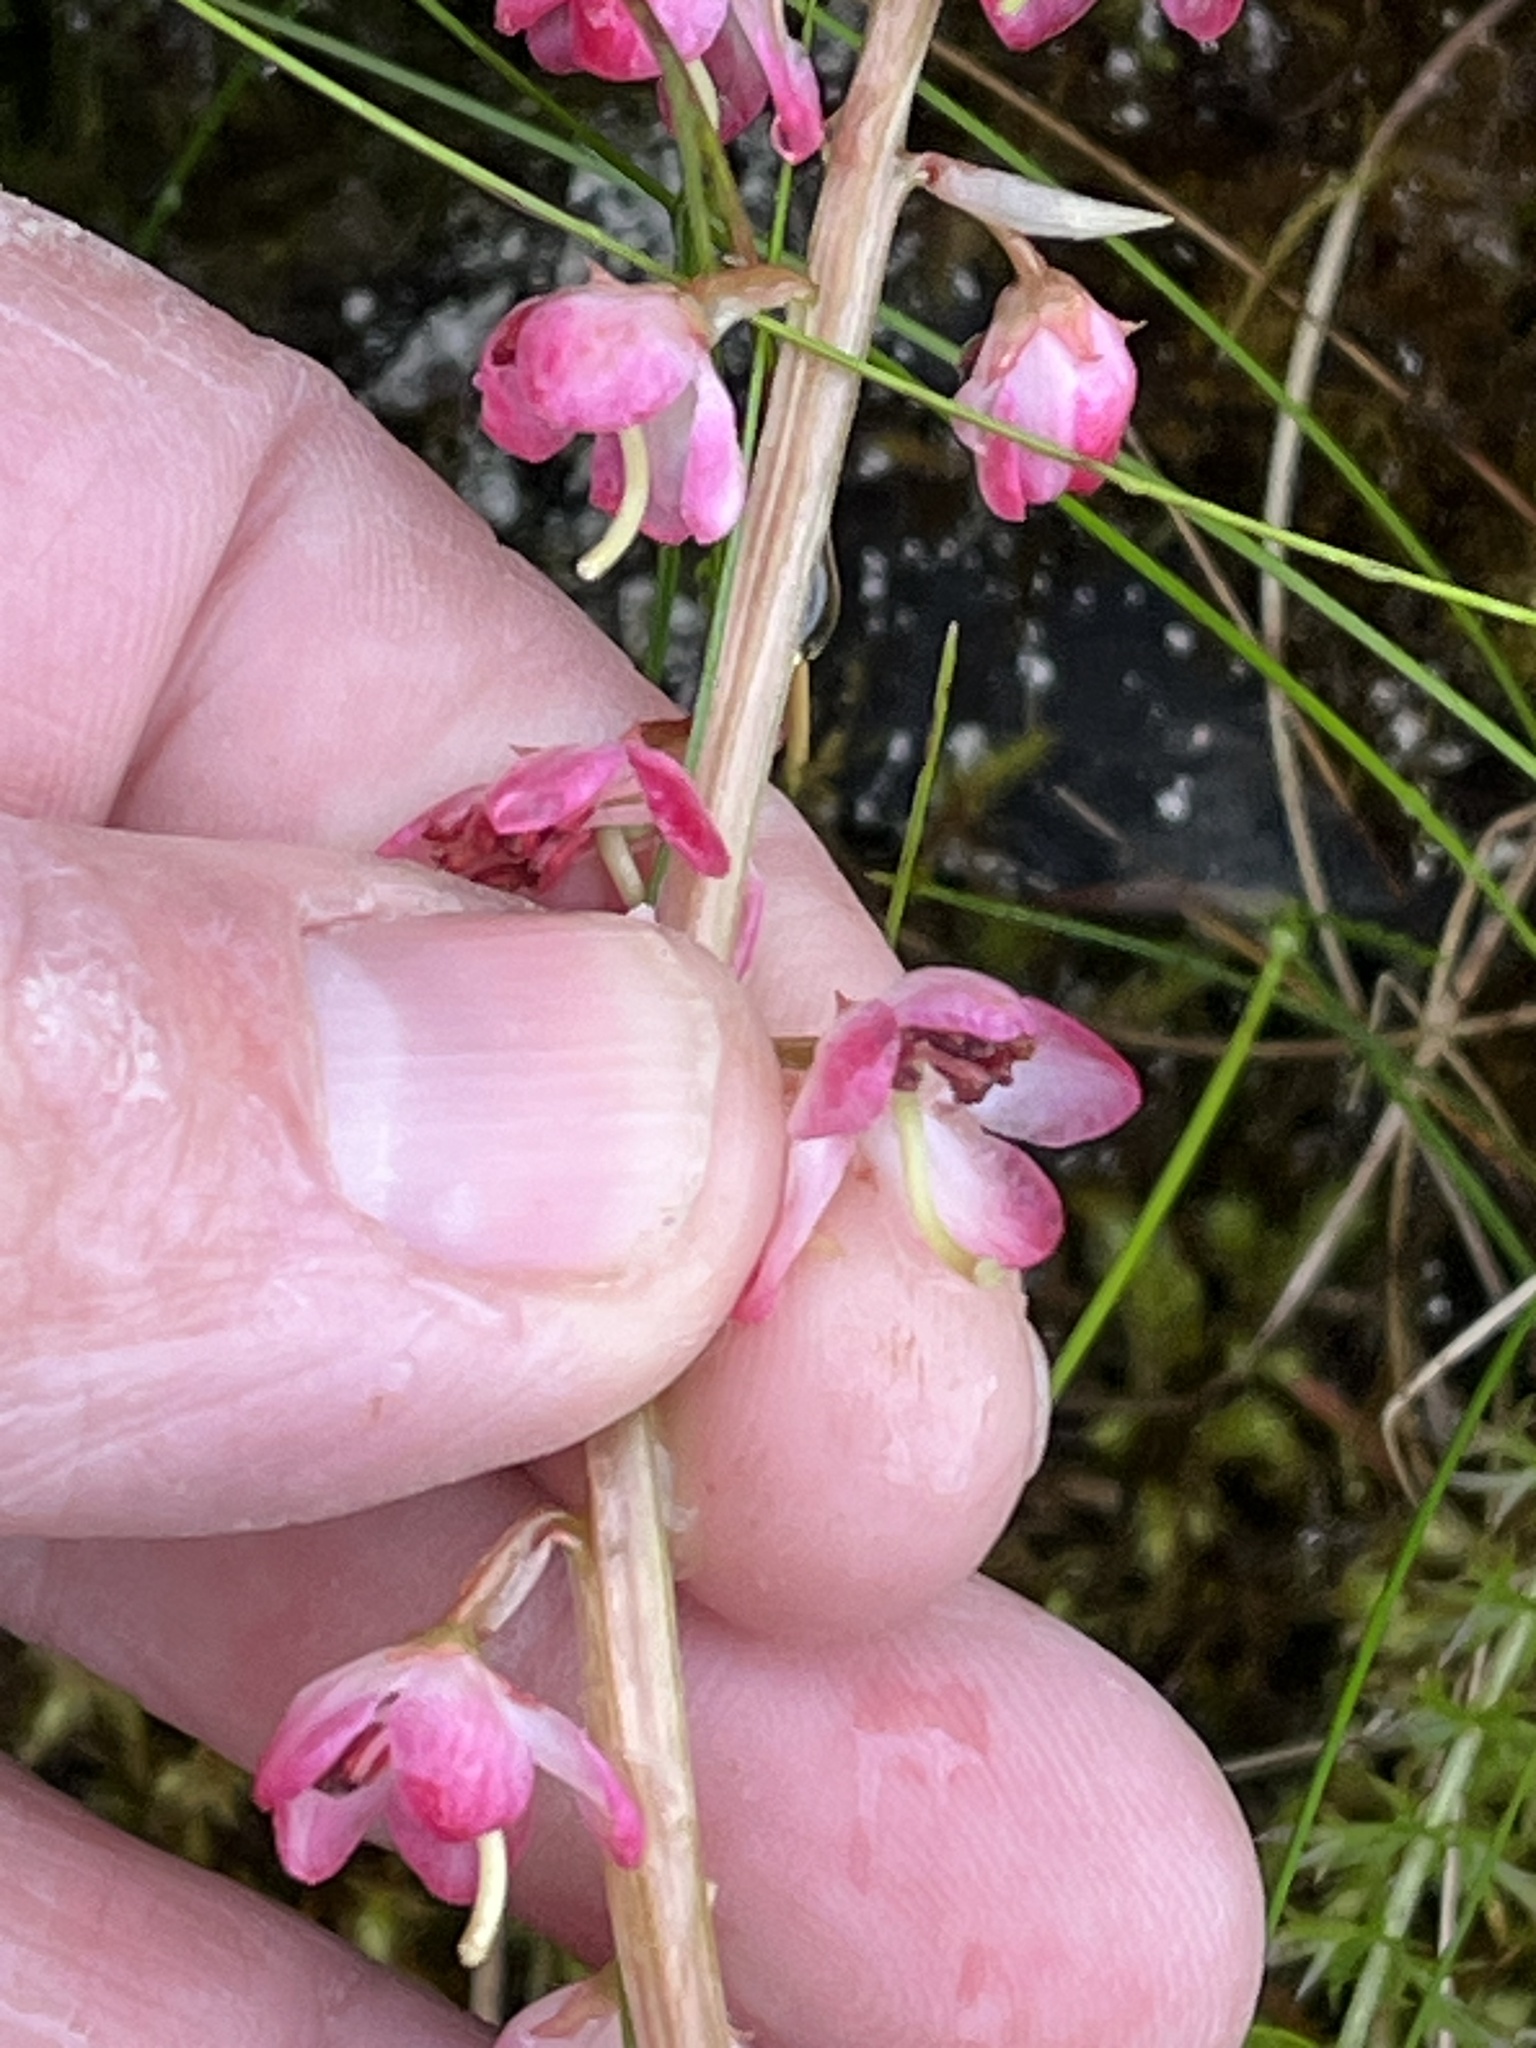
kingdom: Plantae
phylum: Tracheophyta
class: Magnoliopsida
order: Ericales
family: Ericaceae
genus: Pyrola
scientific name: Pyrola asarifolia
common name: Bog wintergreen
